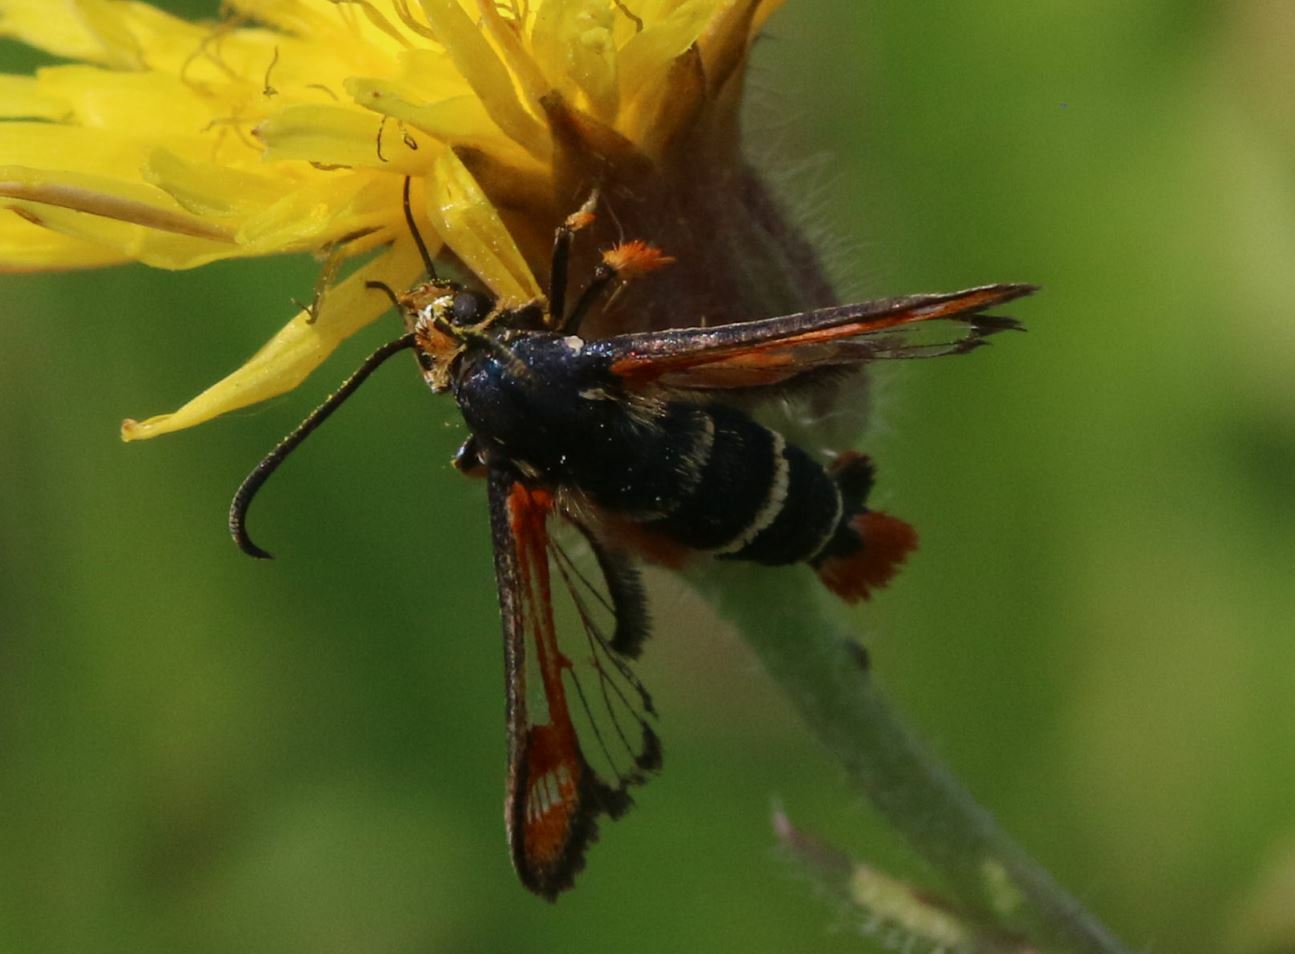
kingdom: Animalia
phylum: Arthropoda
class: Insecta
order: Lepidoptera
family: Sesiidae
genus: Pyropteron
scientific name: Pyropteron chrysidiforme
